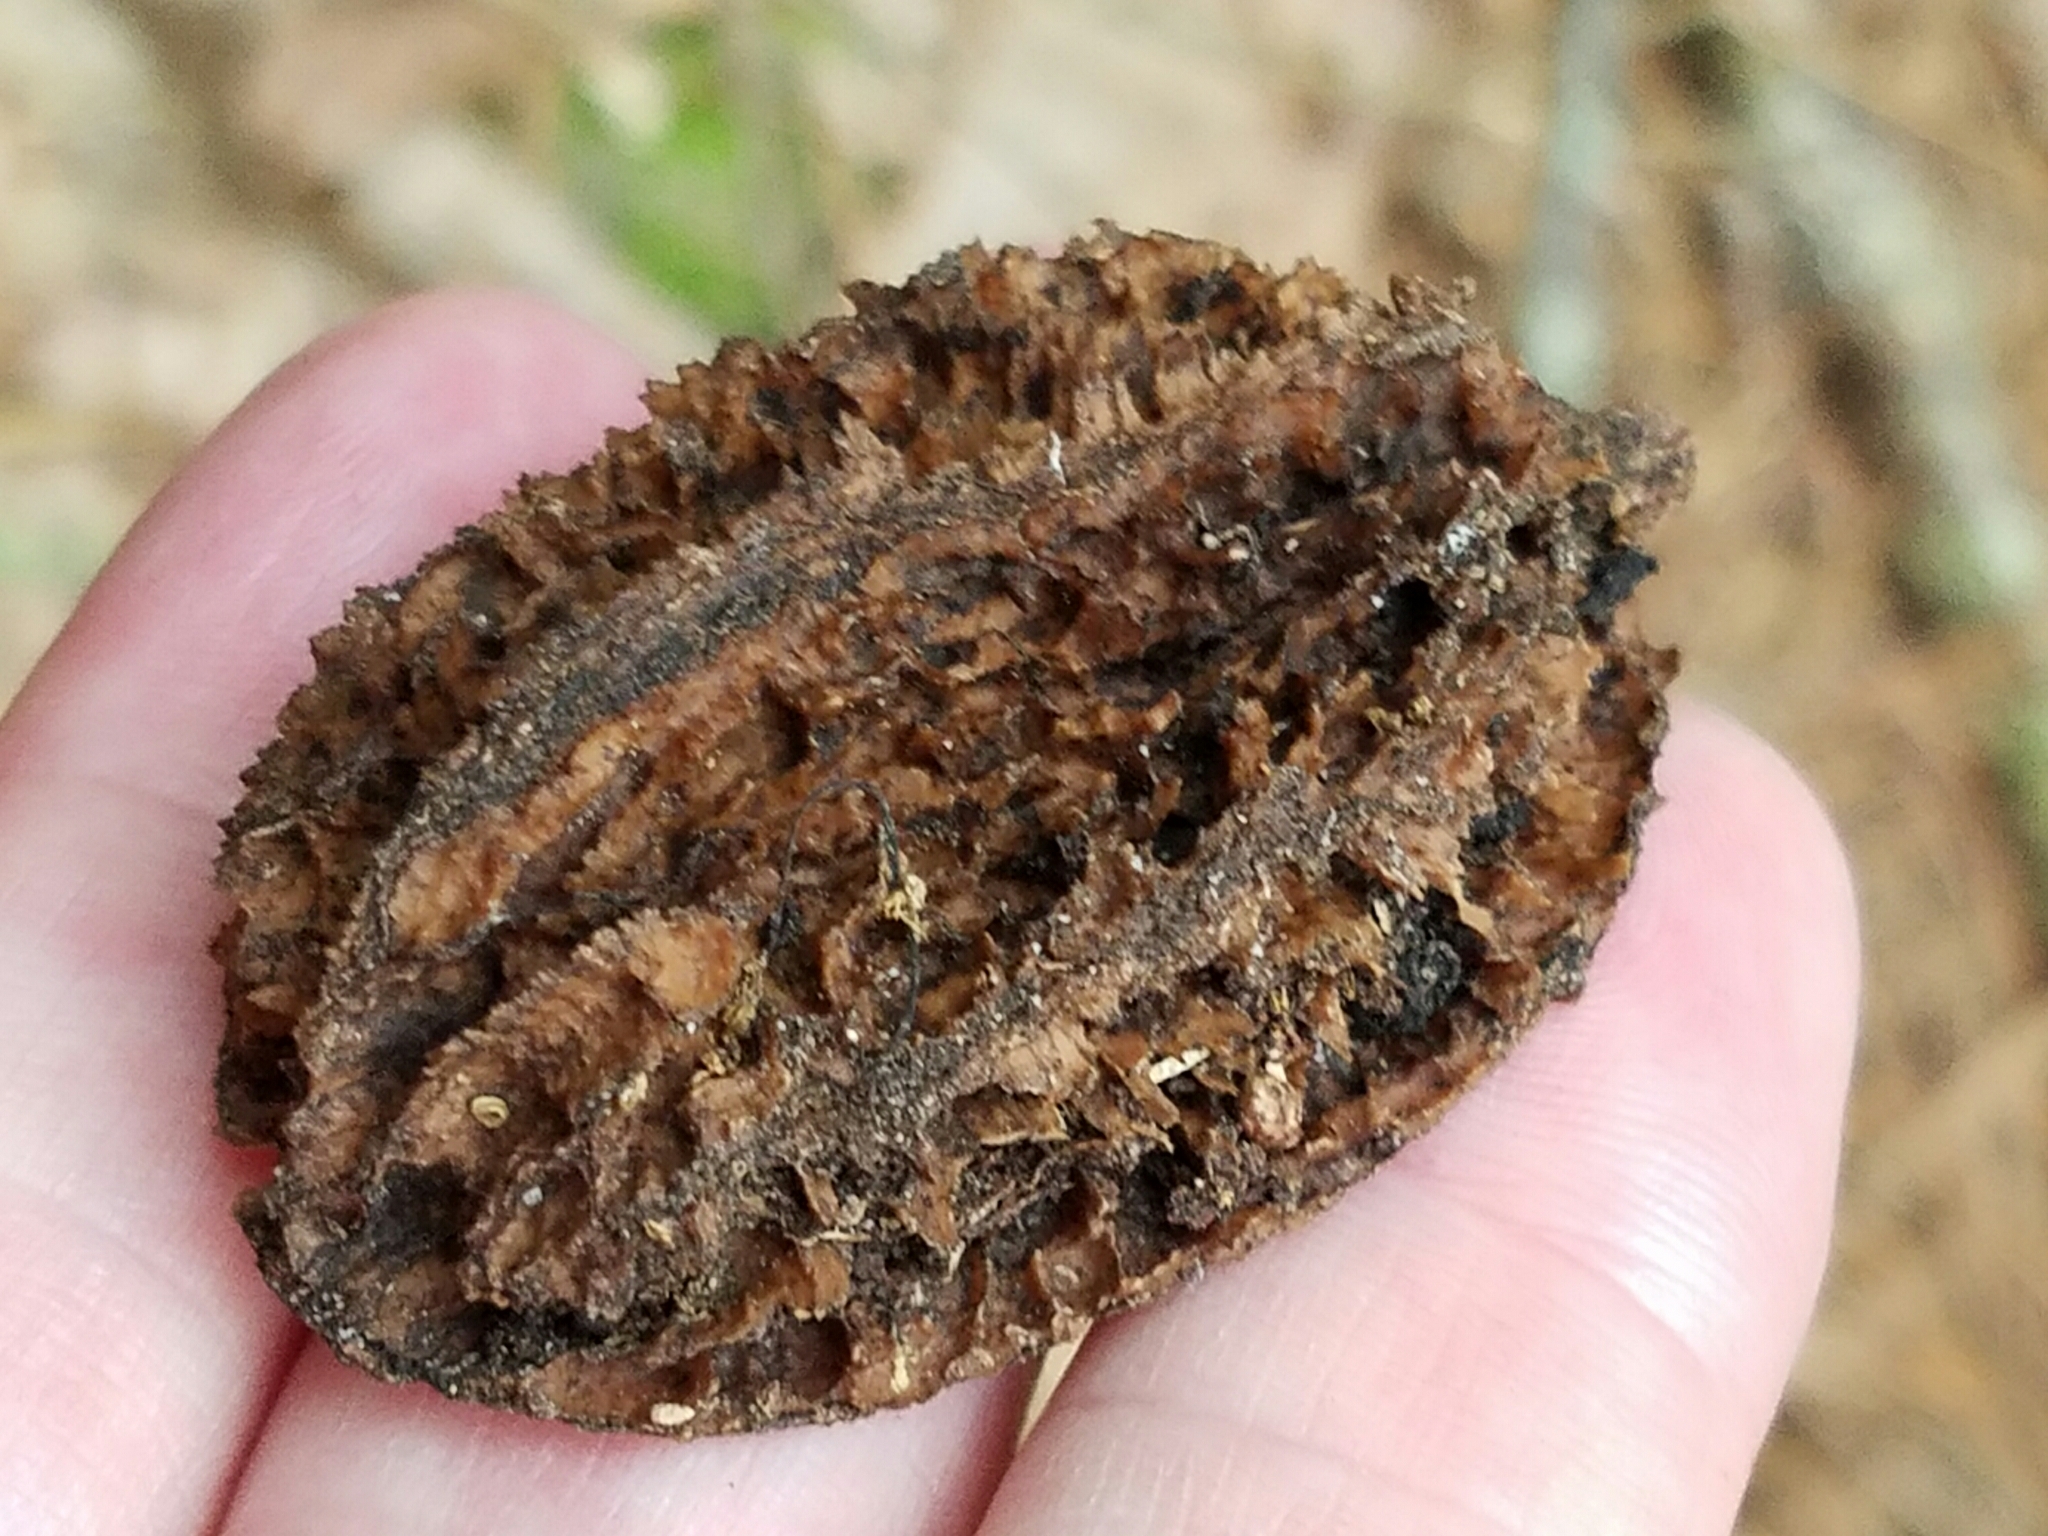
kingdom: Plantae
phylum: Tracheophyta
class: Magnoliopsida
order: Fagales
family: Juglandaceae
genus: Juglans
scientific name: Juglans cinerea
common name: Butternut
